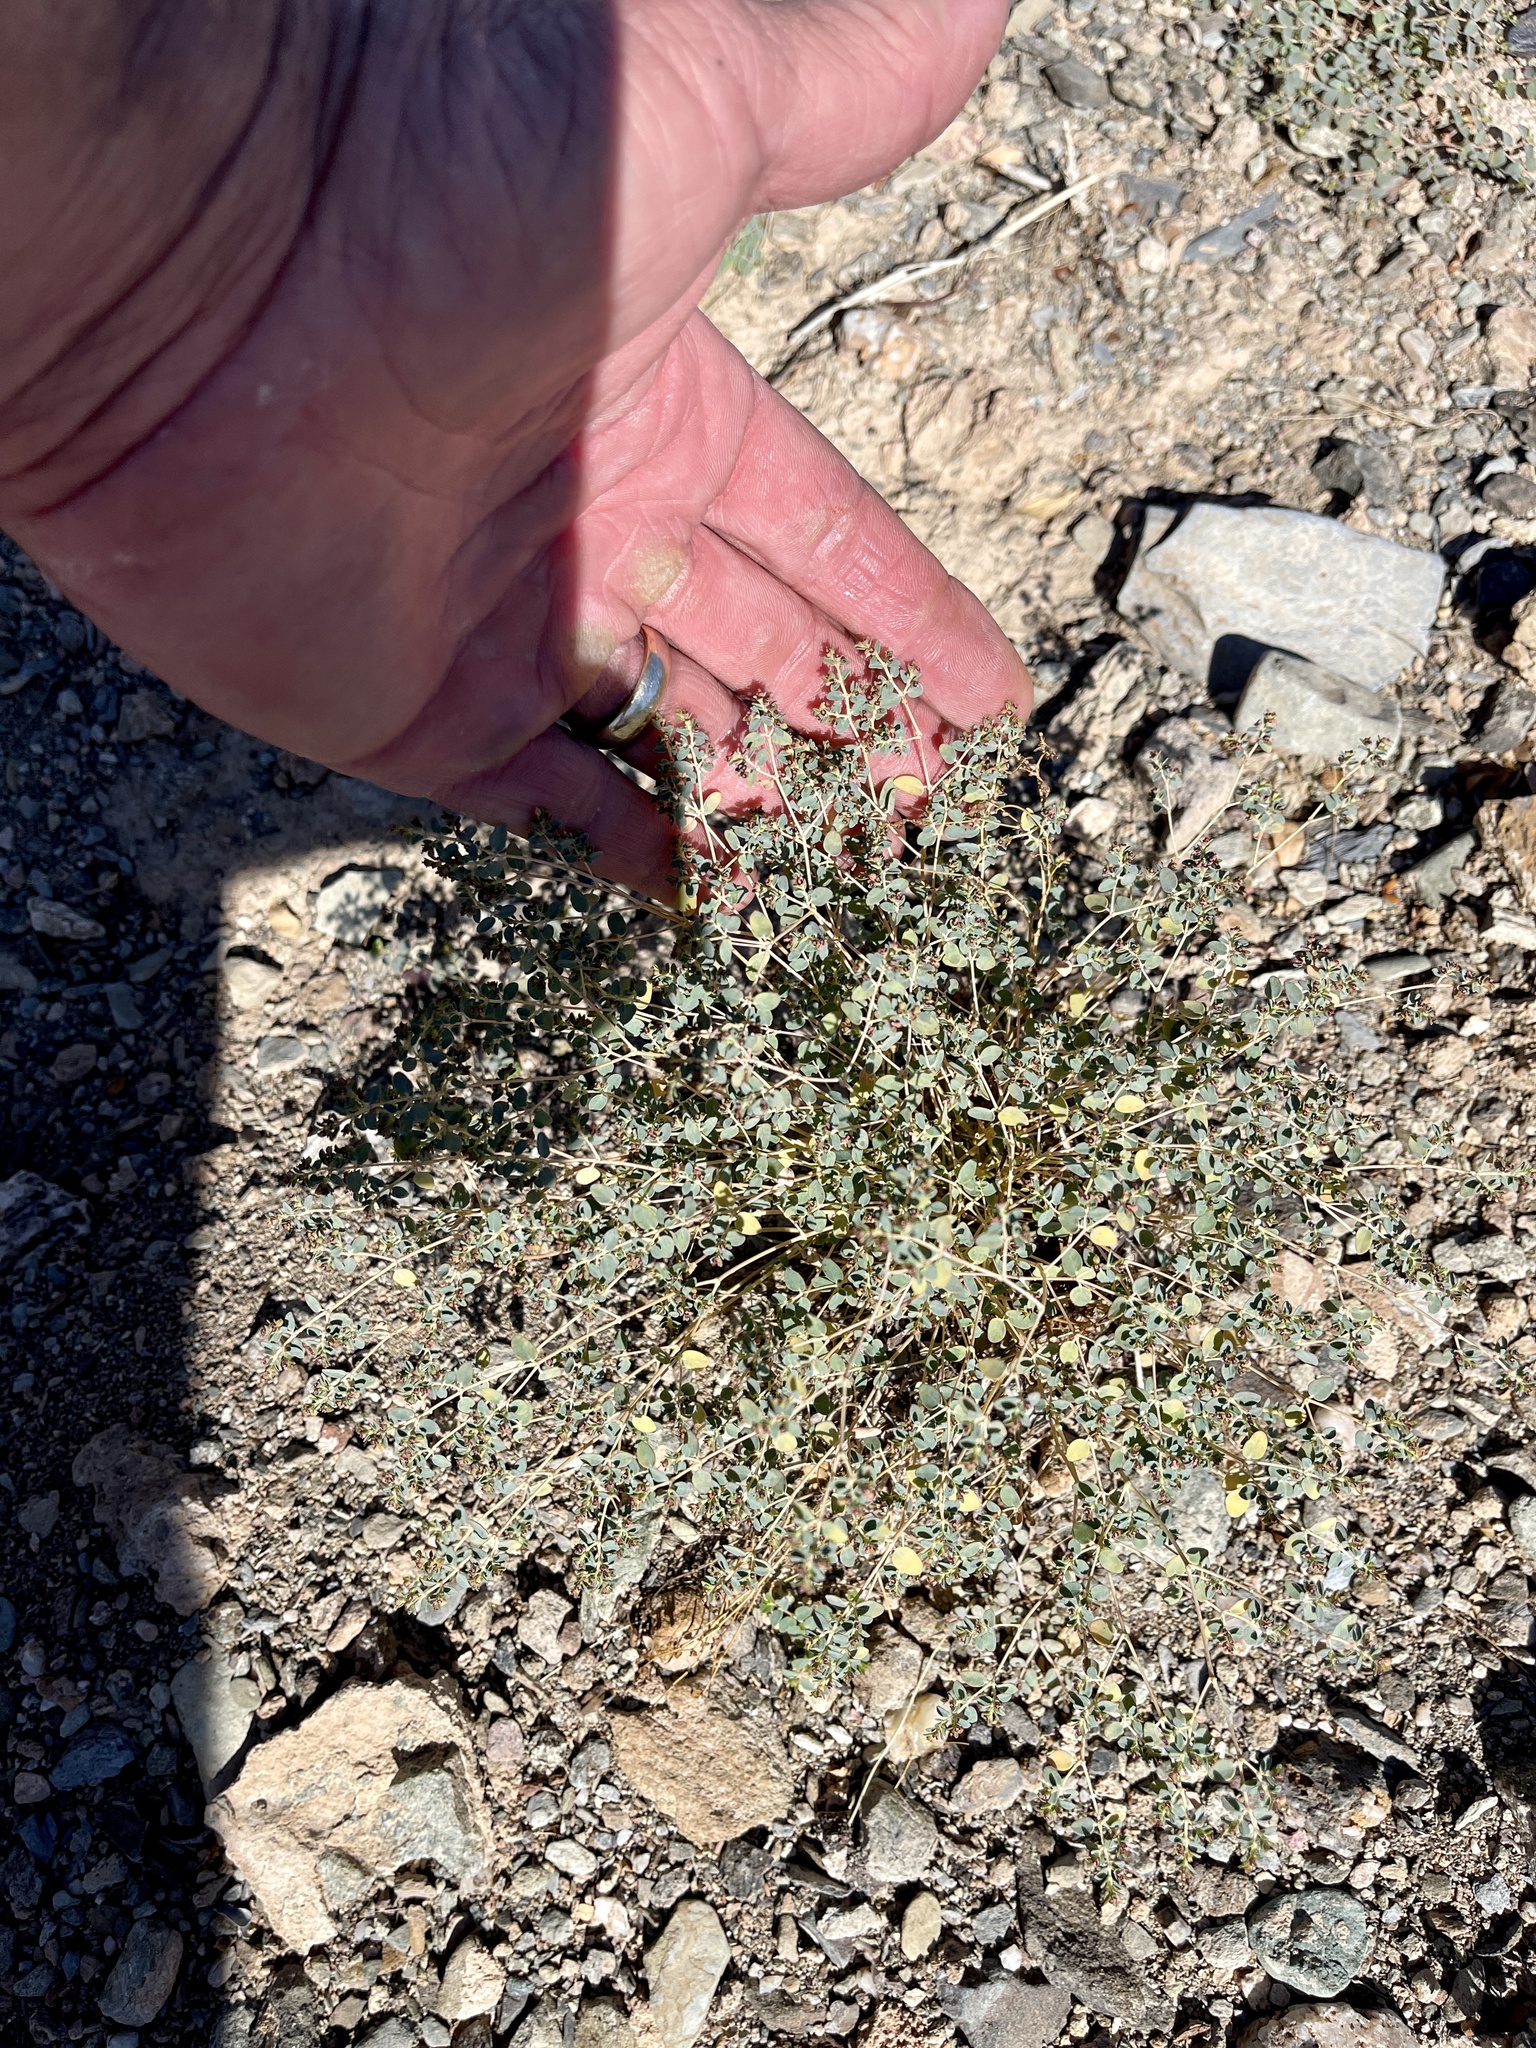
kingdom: Plantae
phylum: Tracheophyta
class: Magnoliopsida
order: Malpighiales
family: Euphorbiaceae
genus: Euphorbia
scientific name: Euphorbia polycarpa
